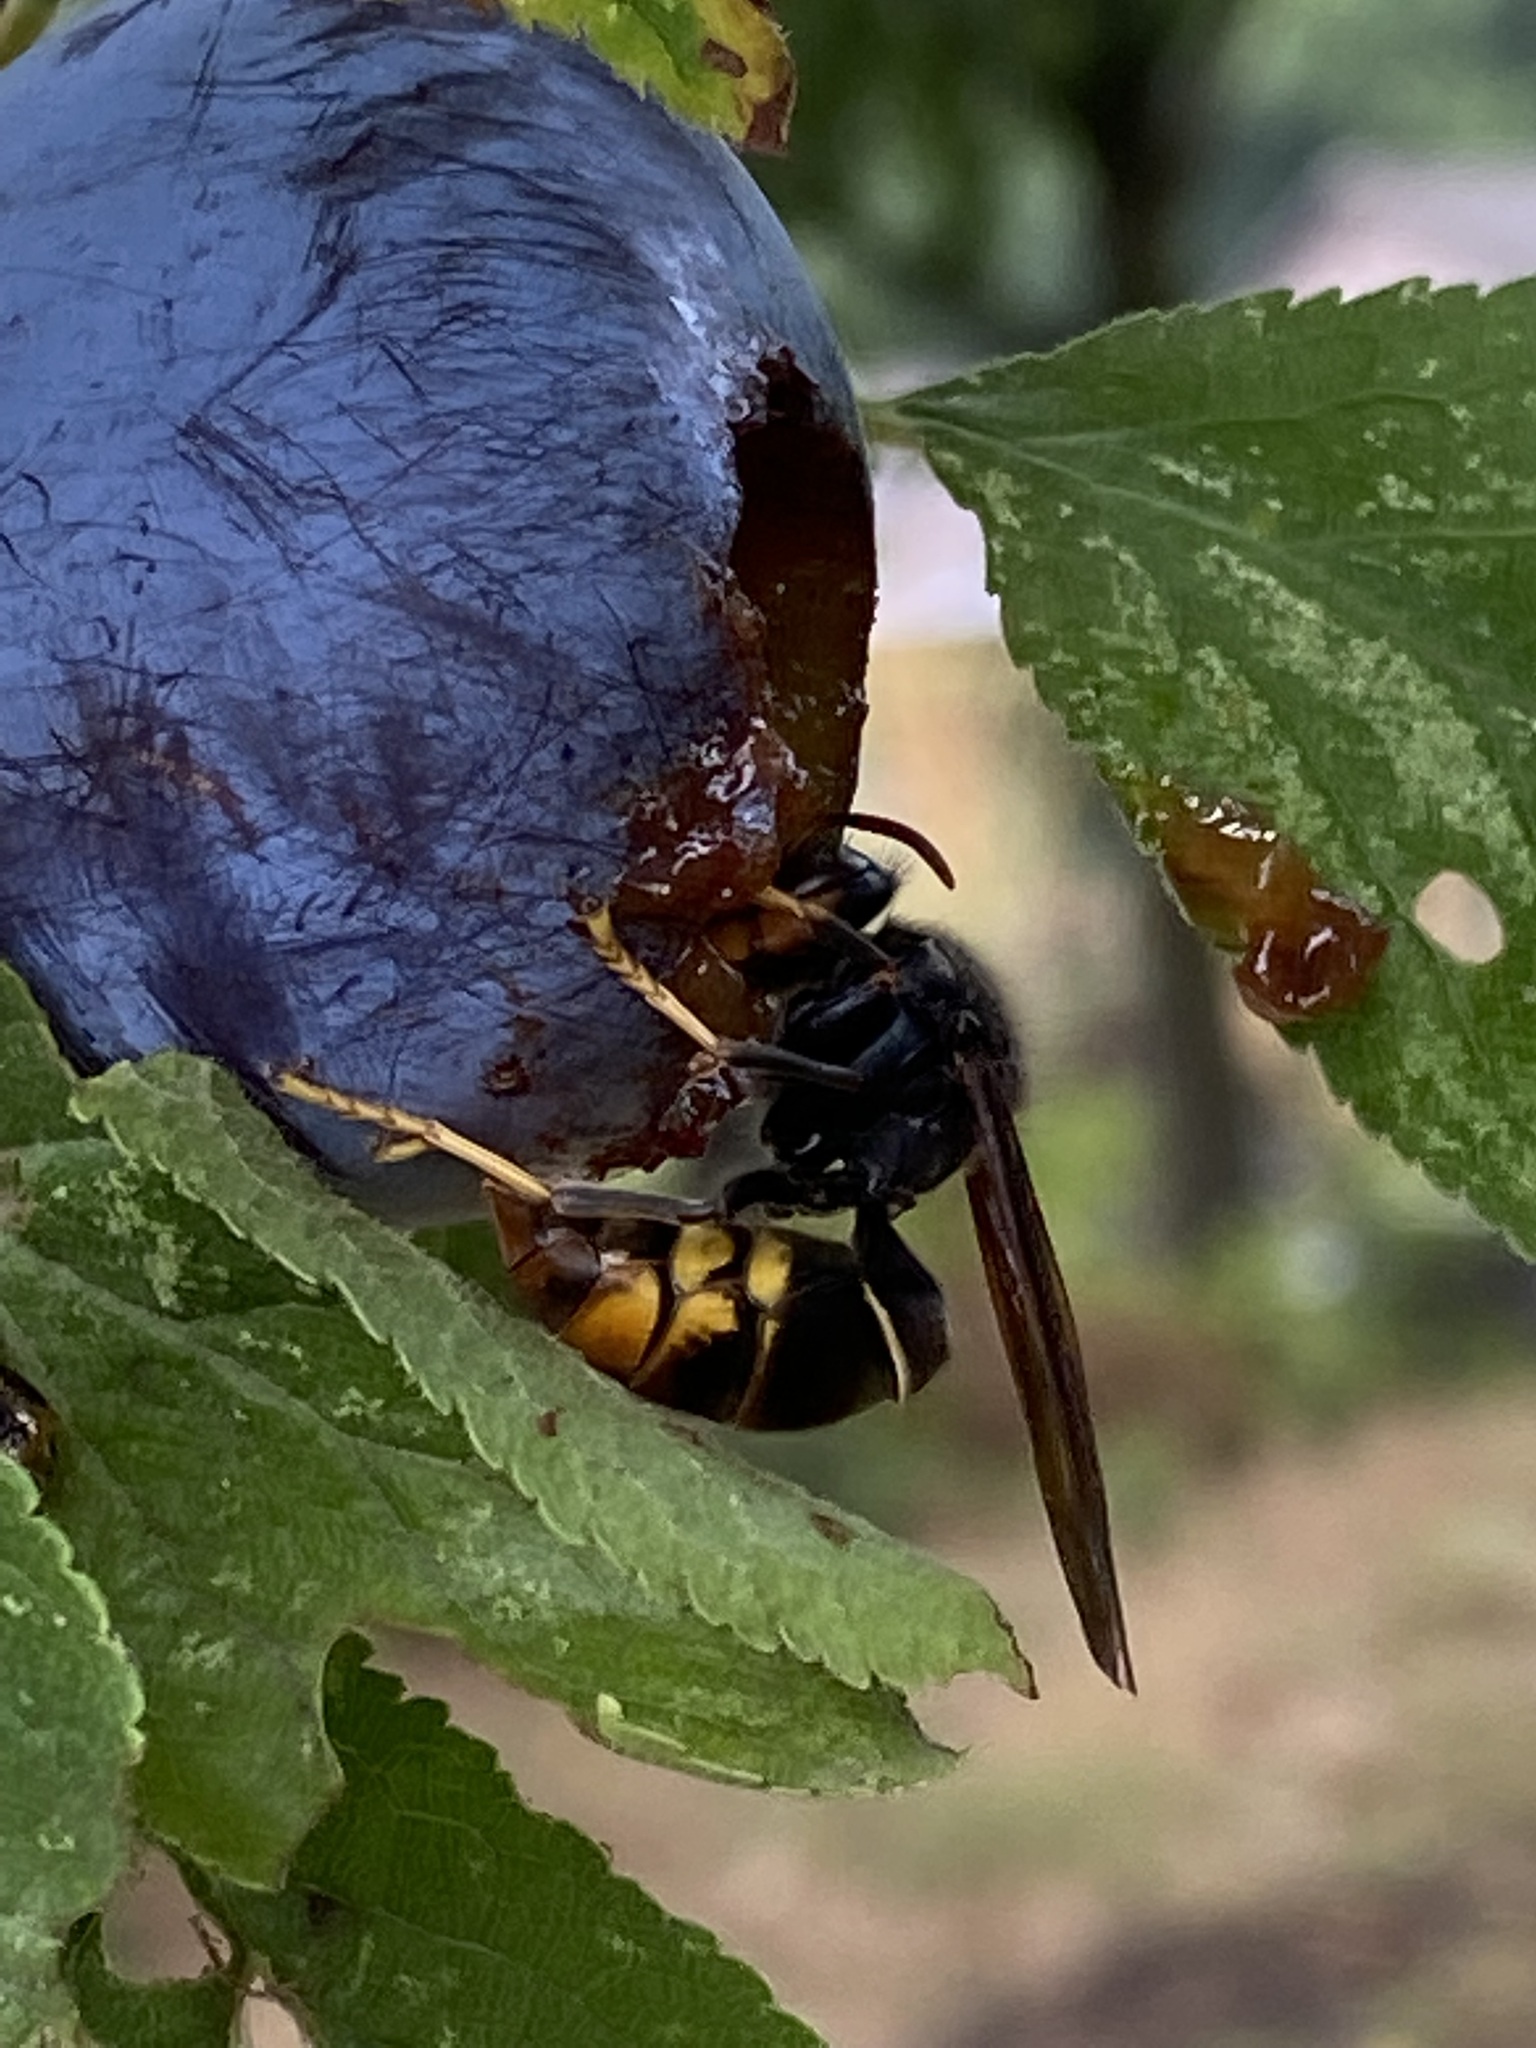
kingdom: Animalia
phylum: Arthropoda
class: Insecta
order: Hymenoptera
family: Vespidae
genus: Vespa
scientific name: Vespa velutina
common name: Asian hornet
